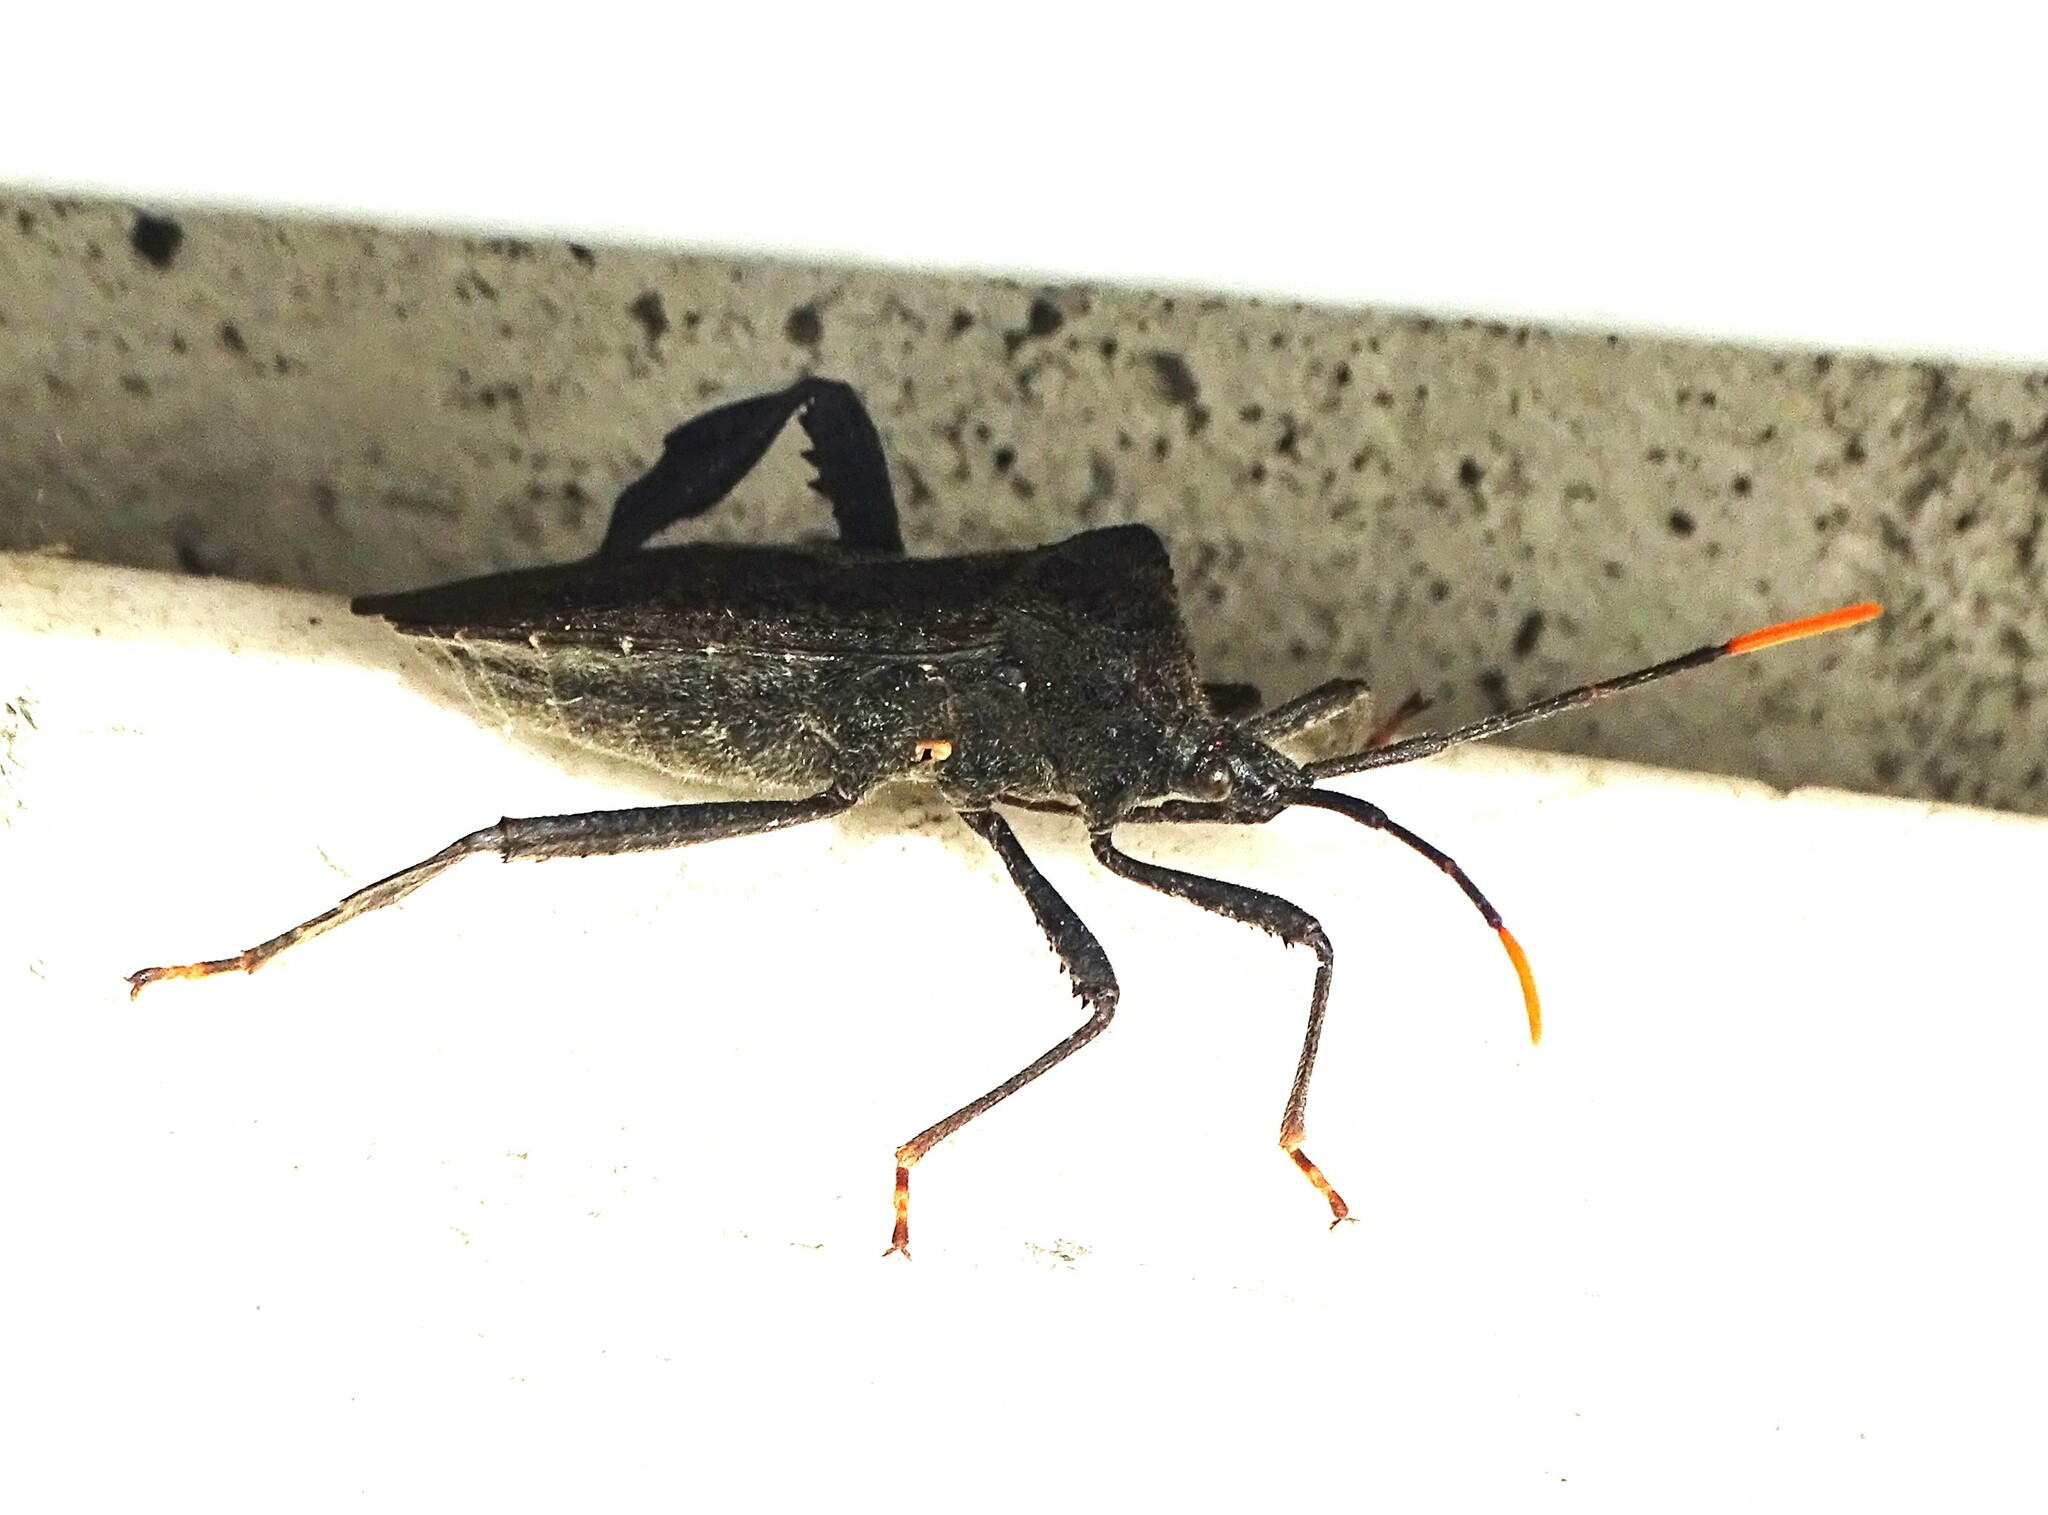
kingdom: Animalia
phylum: Arthropoda
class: Insecta
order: Hemiptera
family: Coreidae
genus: Acanthocephala
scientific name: Acanthocephala terminalis
